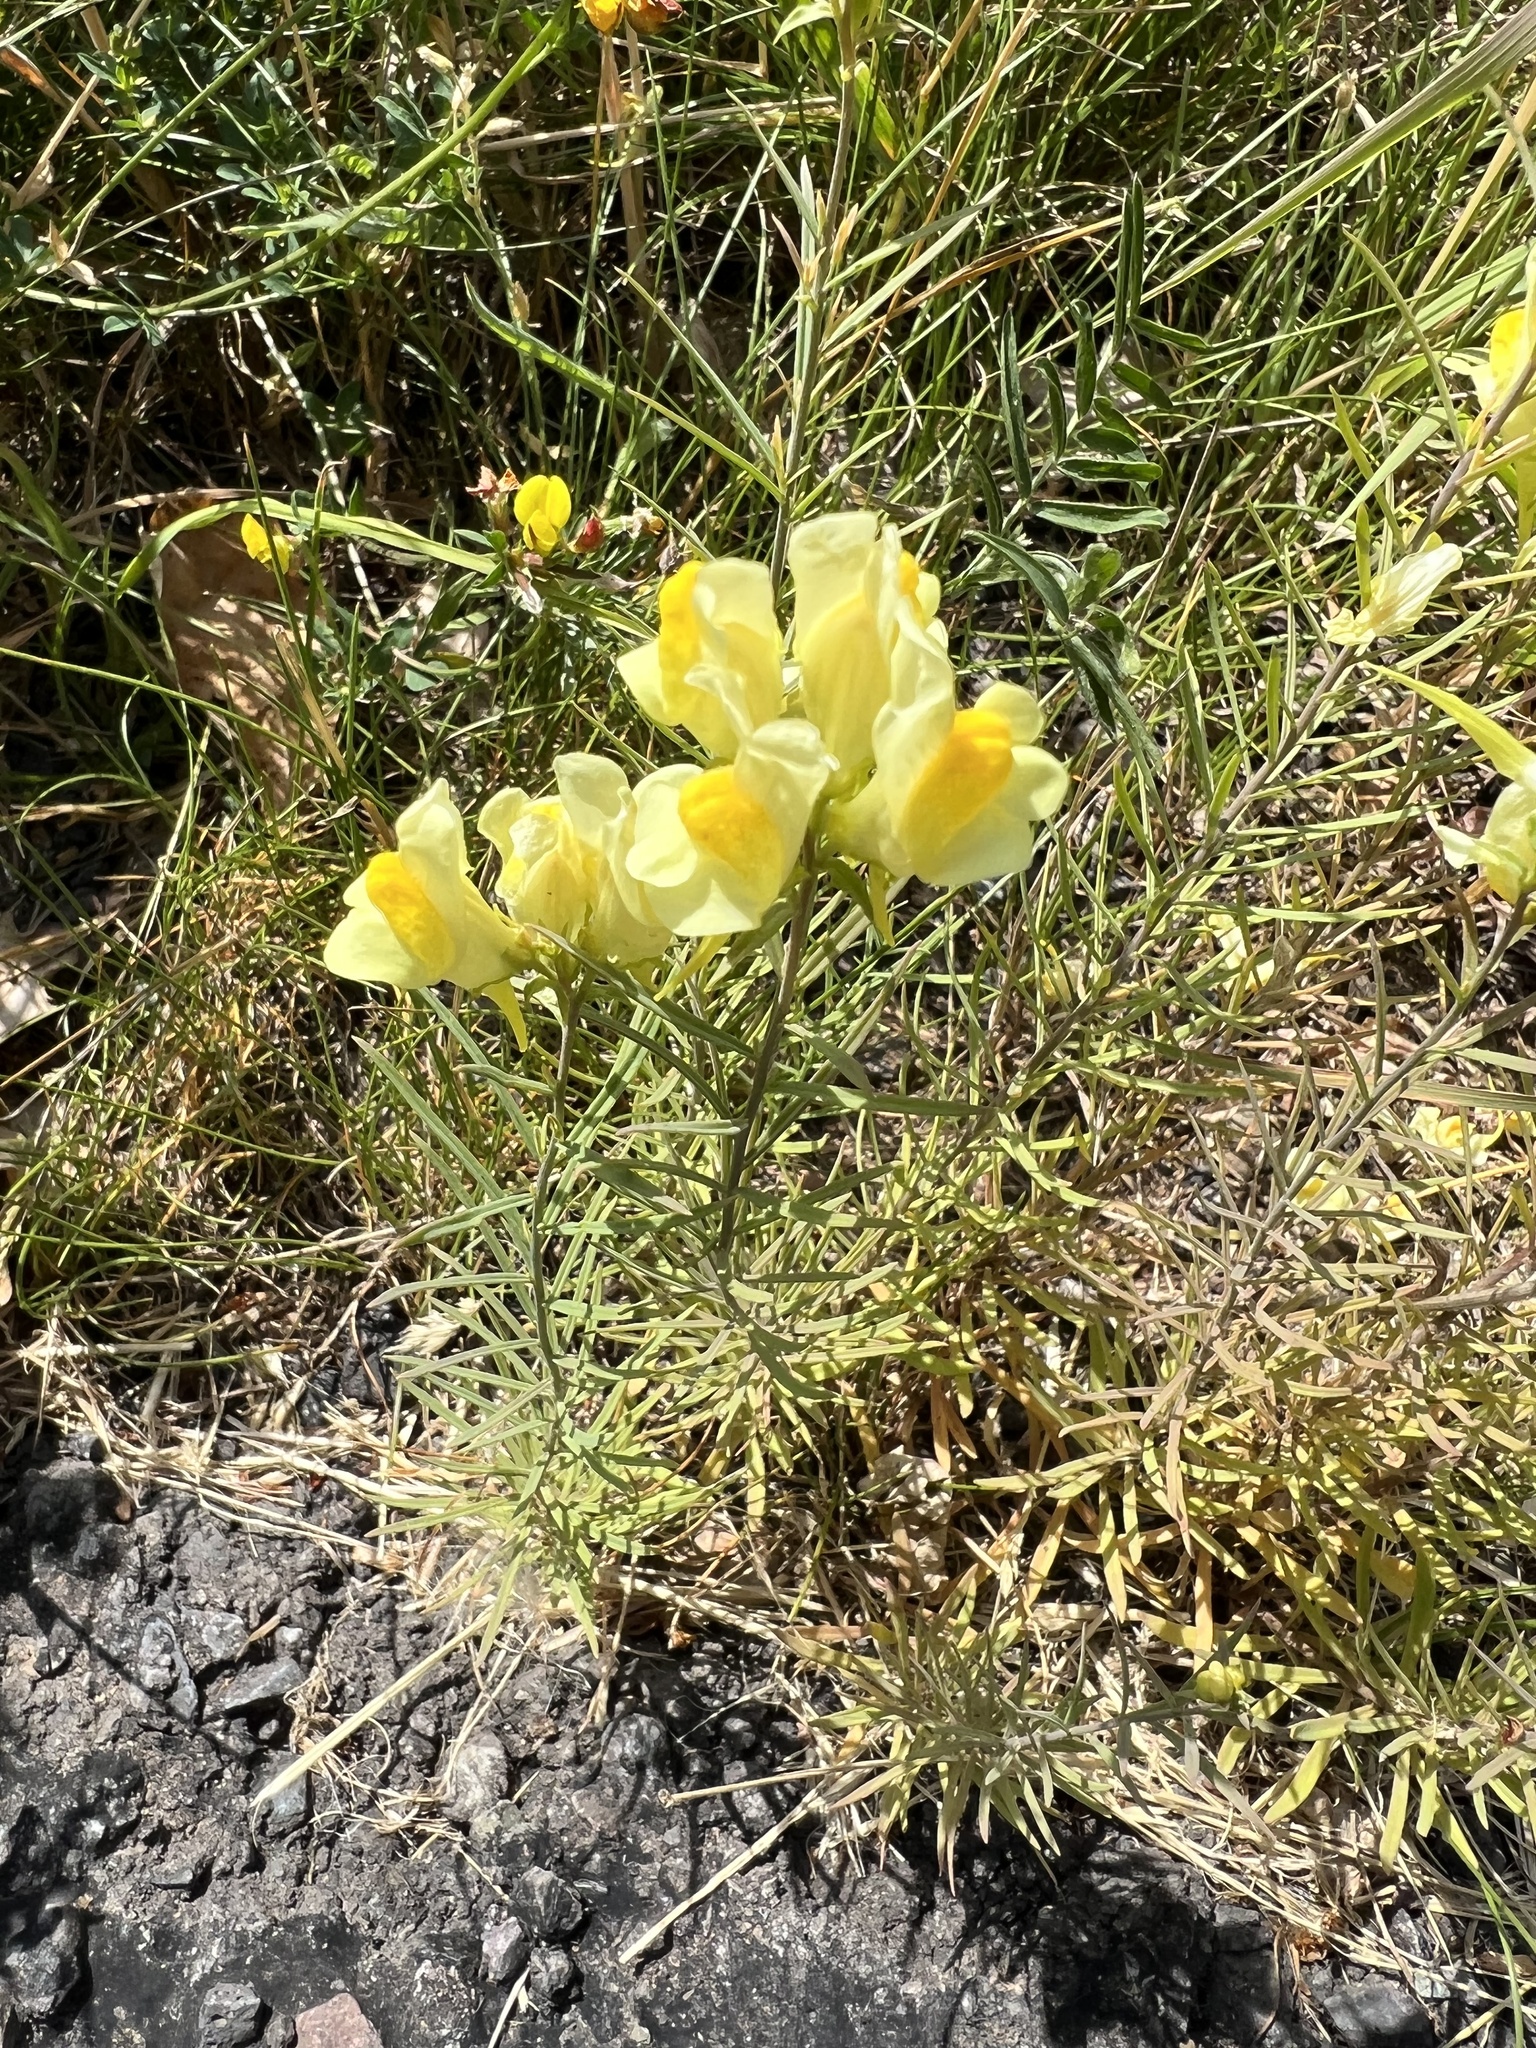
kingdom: Plantae
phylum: Tracheophyta
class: Magnoliopsida
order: Lamiales
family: Plantaginaceae
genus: Linaria
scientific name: Linaria vulgaris
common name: Butter and eggs
